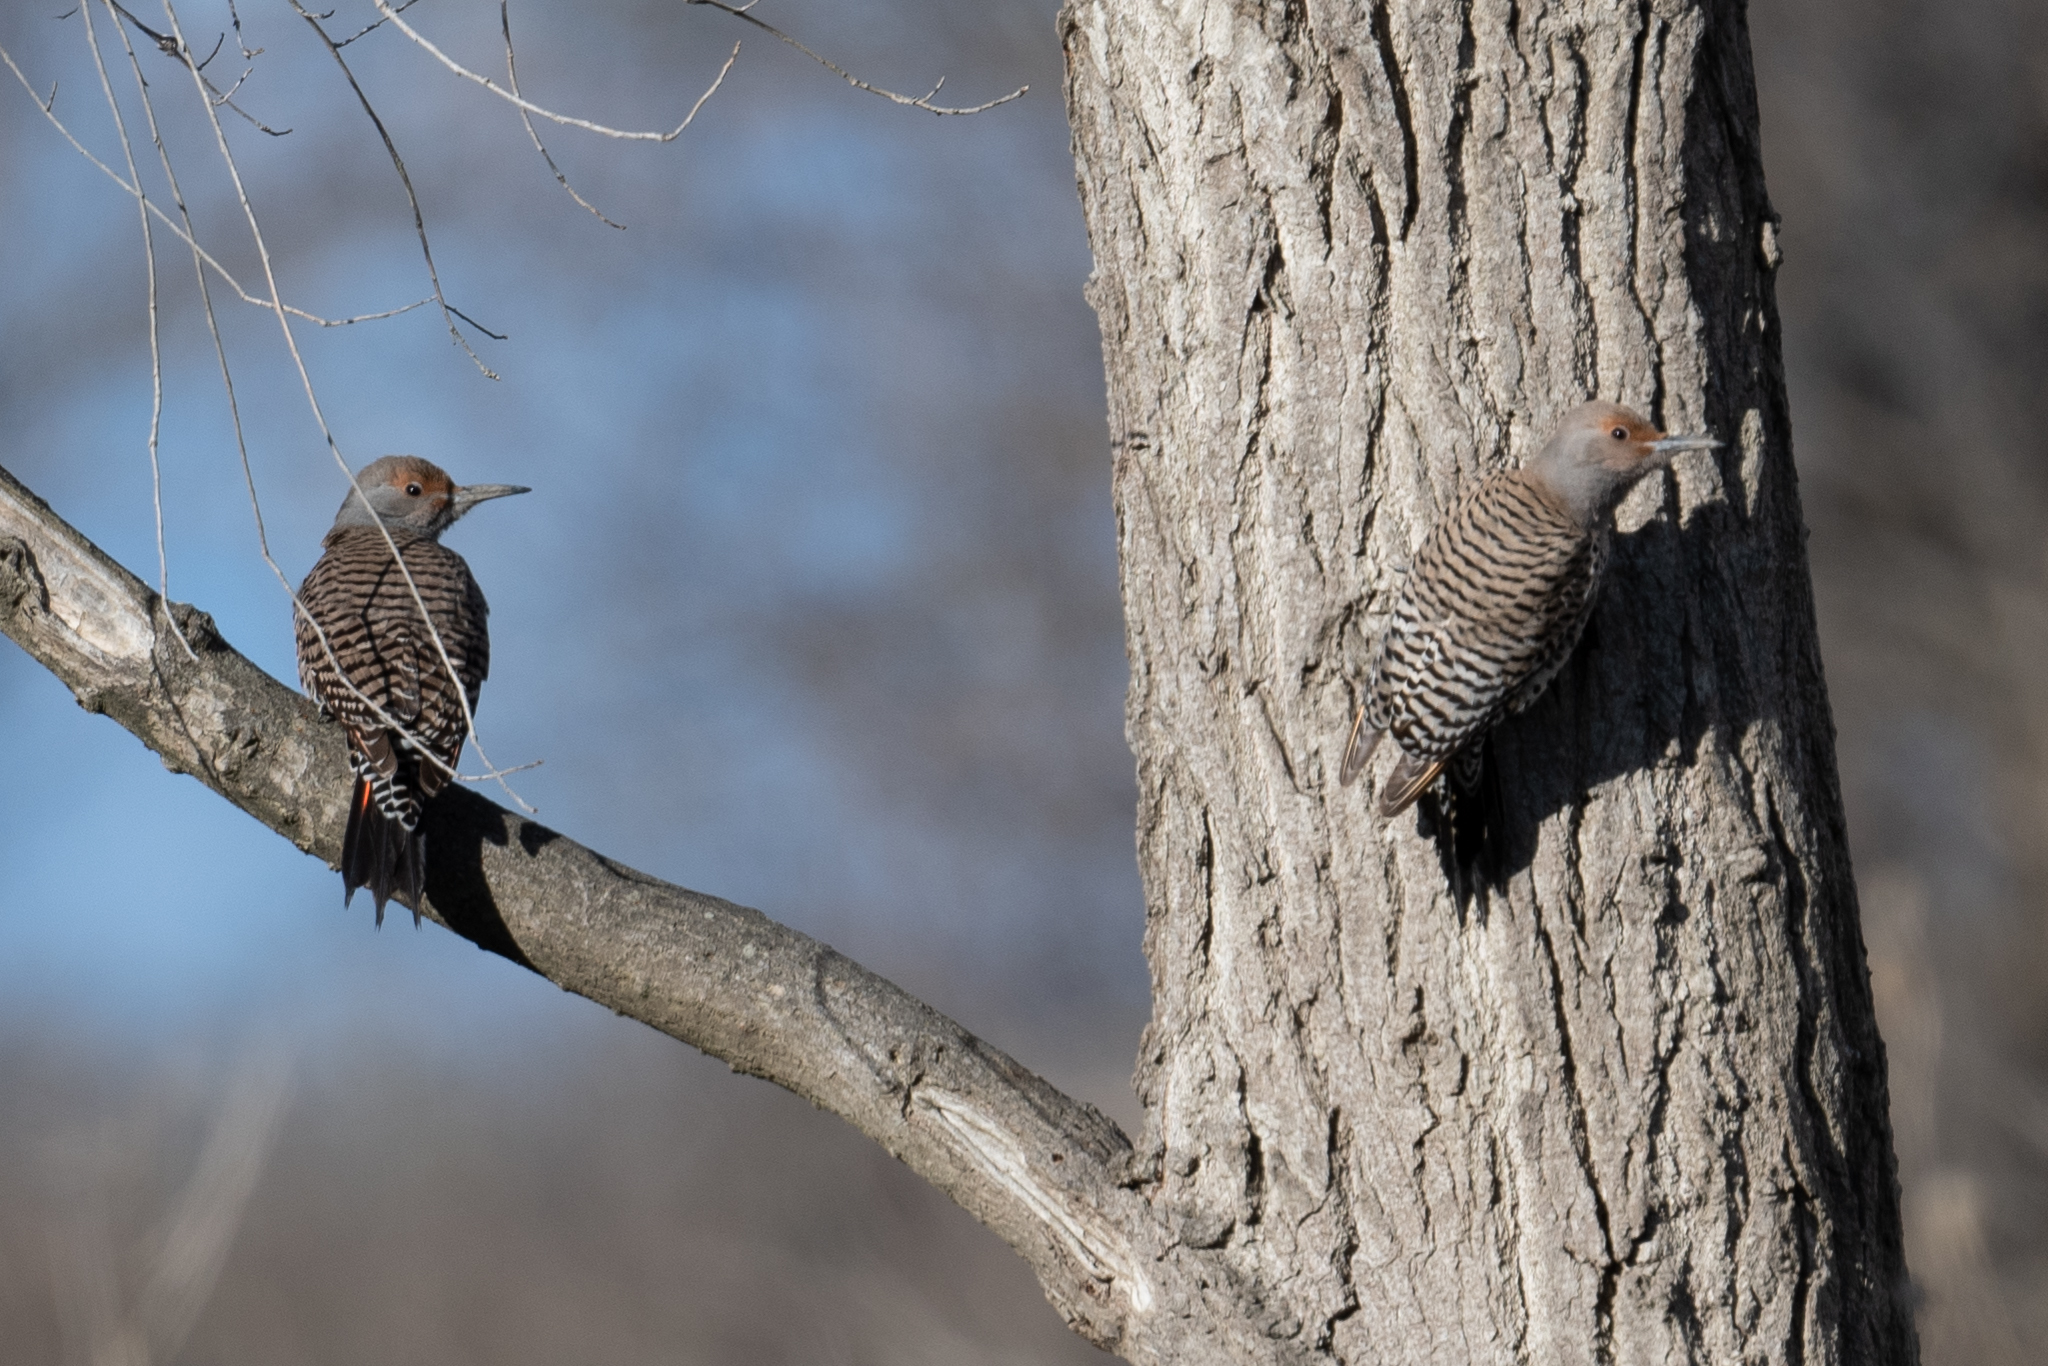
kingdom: Animalia
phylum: Chordata
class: Aves
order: Piciformes
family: Picidae
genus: Colaptes
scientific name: Colaptes auratus
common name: Northern flicker
